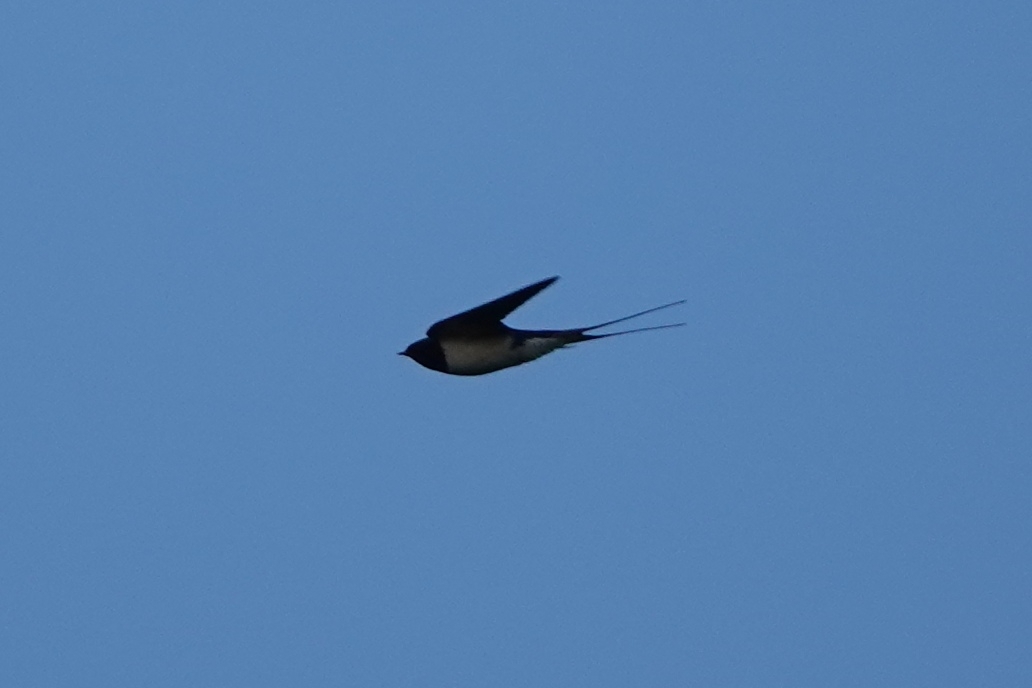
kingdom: Animalia
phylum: Chordata
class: Aves
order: Passeriformes
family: Hirundinidae
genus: Hirundo
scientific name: Hirundo rustica
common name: Barn swallow
